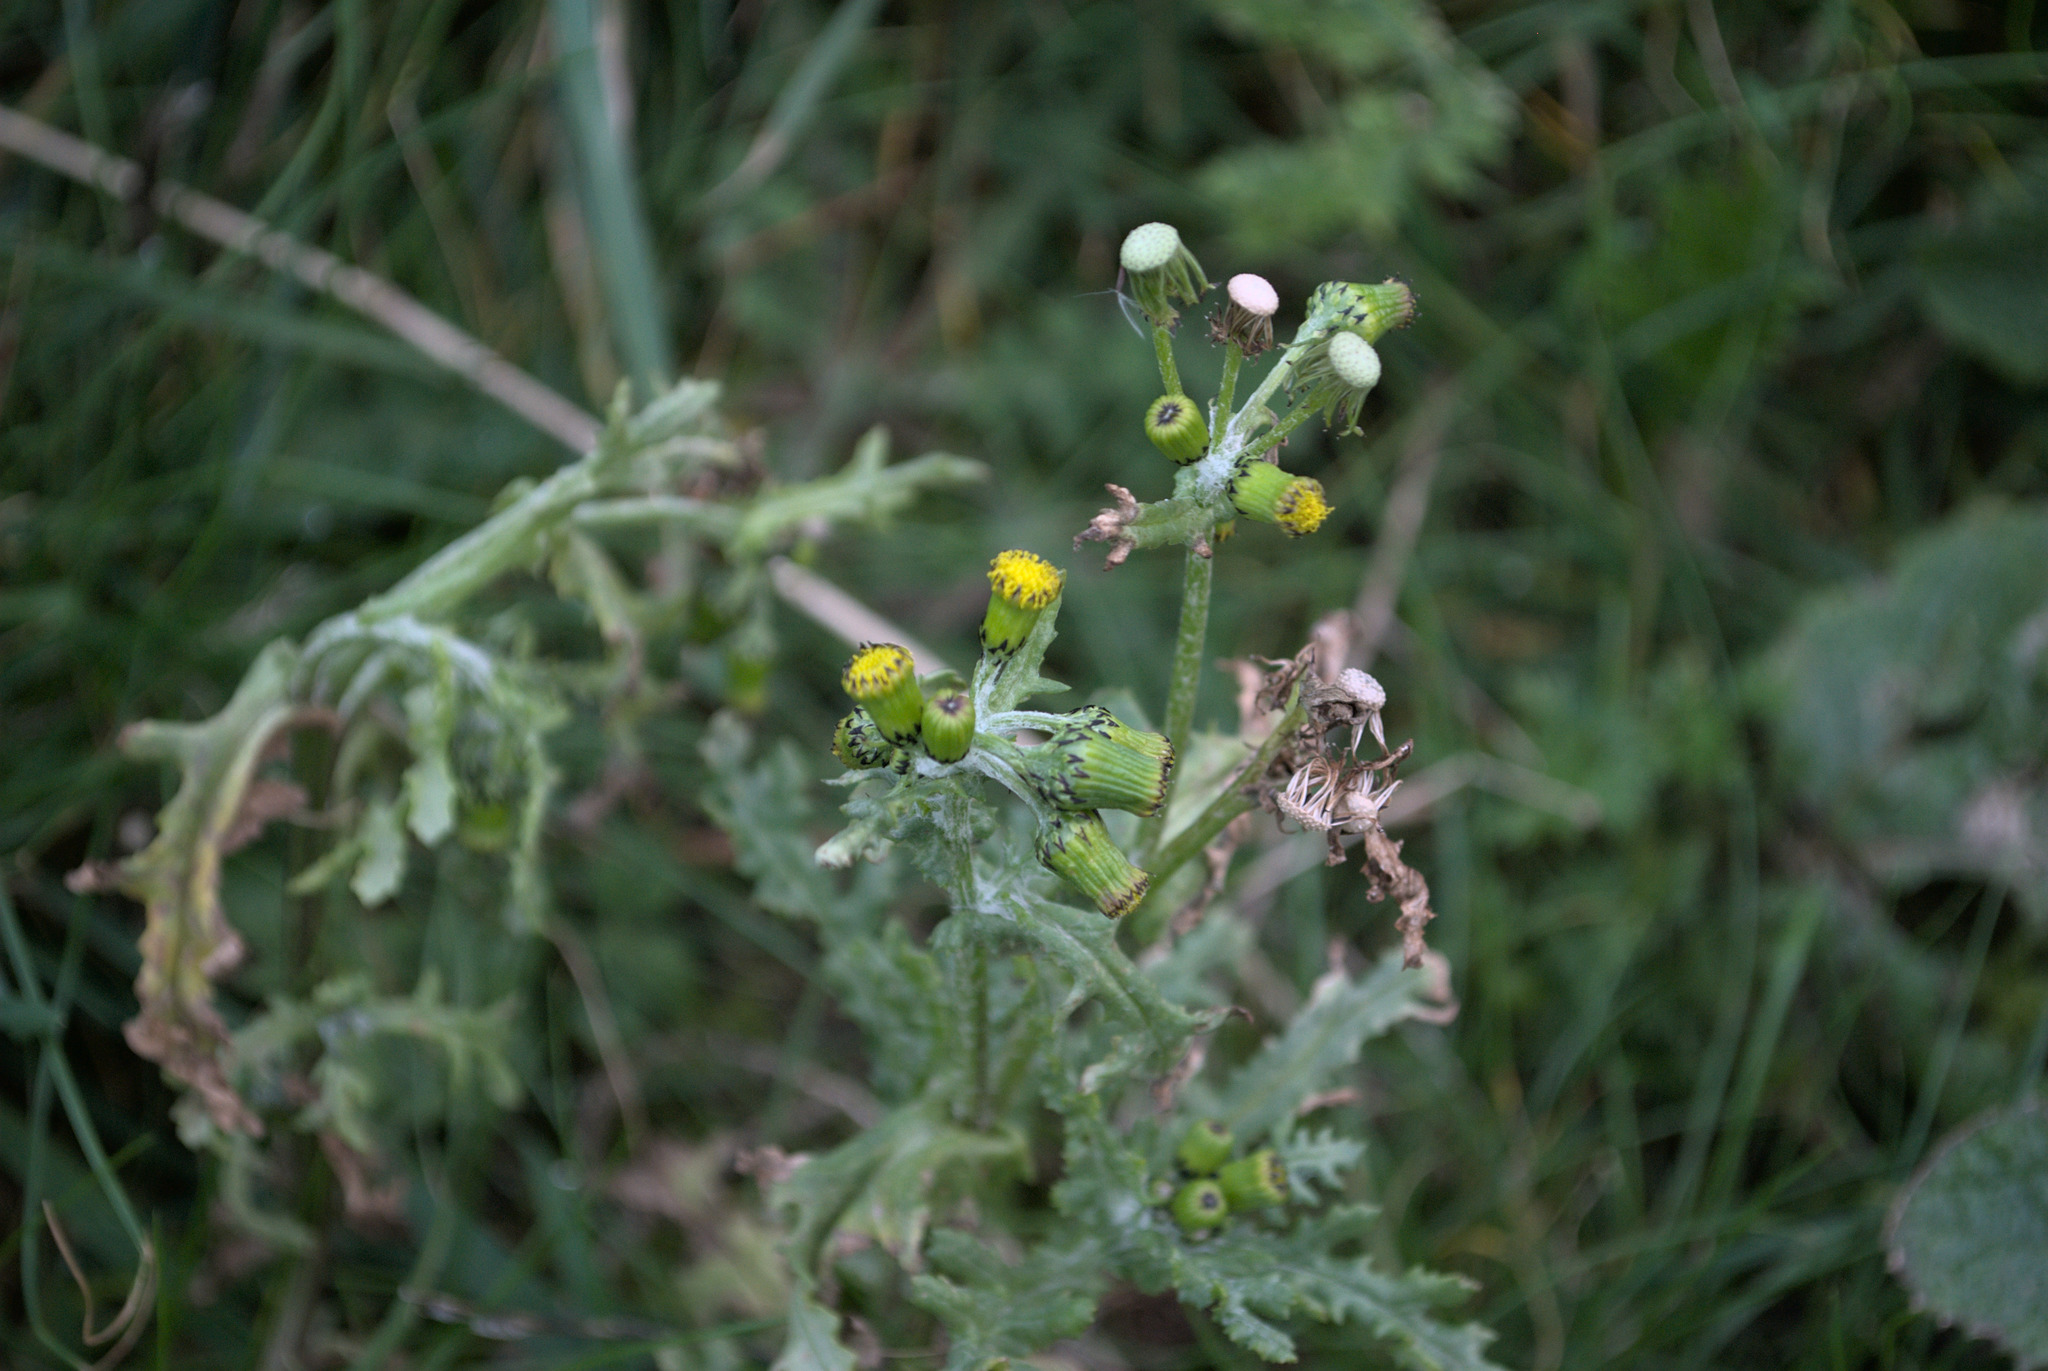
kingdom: Plantae
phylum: Tracheophyta
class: Magnoliopsida
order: Asterales
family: Asteraceae
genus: Senecio
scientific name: Senecio vulgaris
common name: Old-man-in-the-spring
